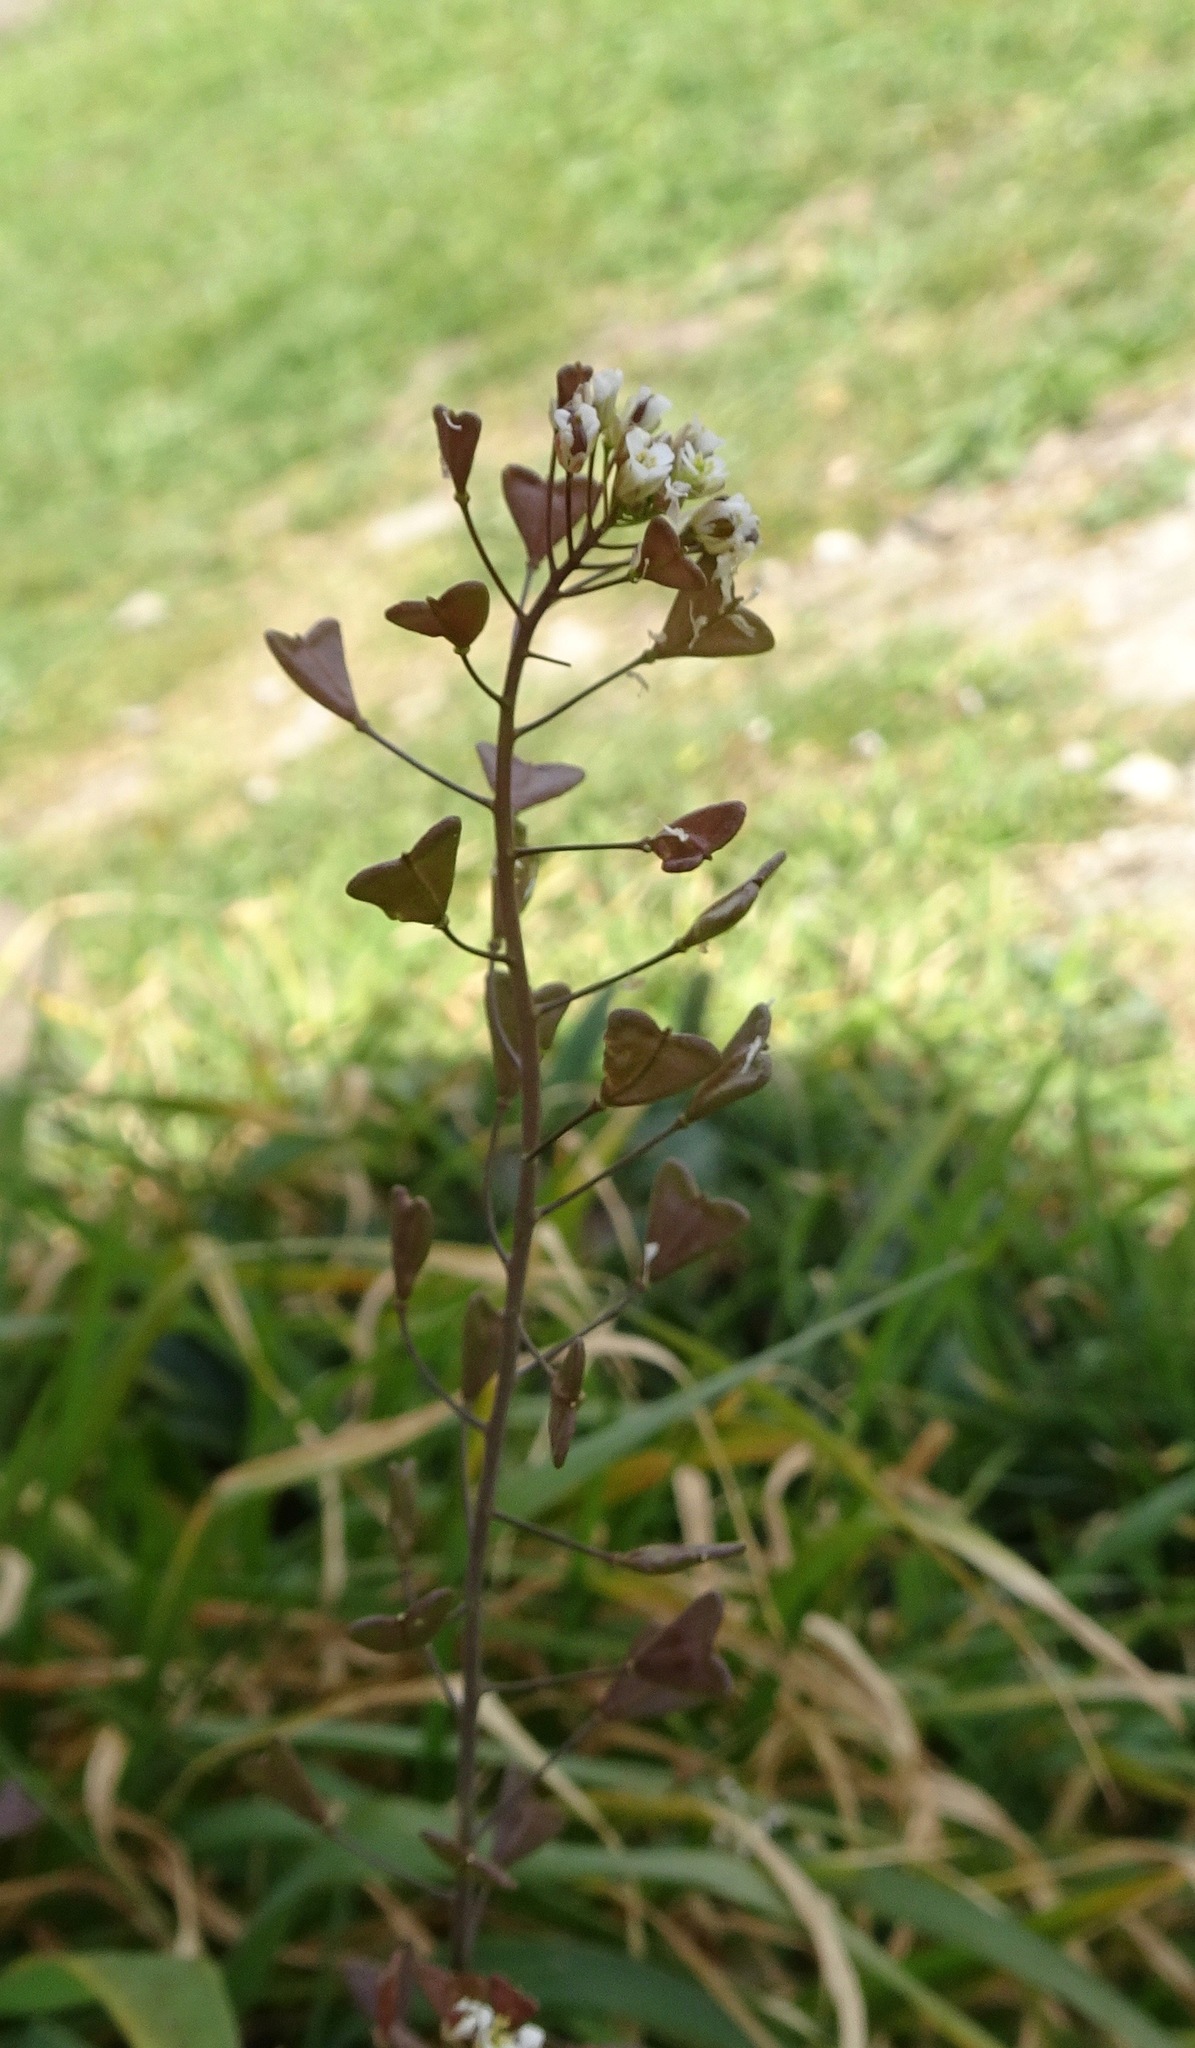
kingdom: Plantae
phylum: Tracheophyta
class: Magnoliopsida
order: Brassicales
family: Brassicaceae
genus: Capsella
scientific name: Capsella bursa-pastoris
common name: Shepherd's purse
